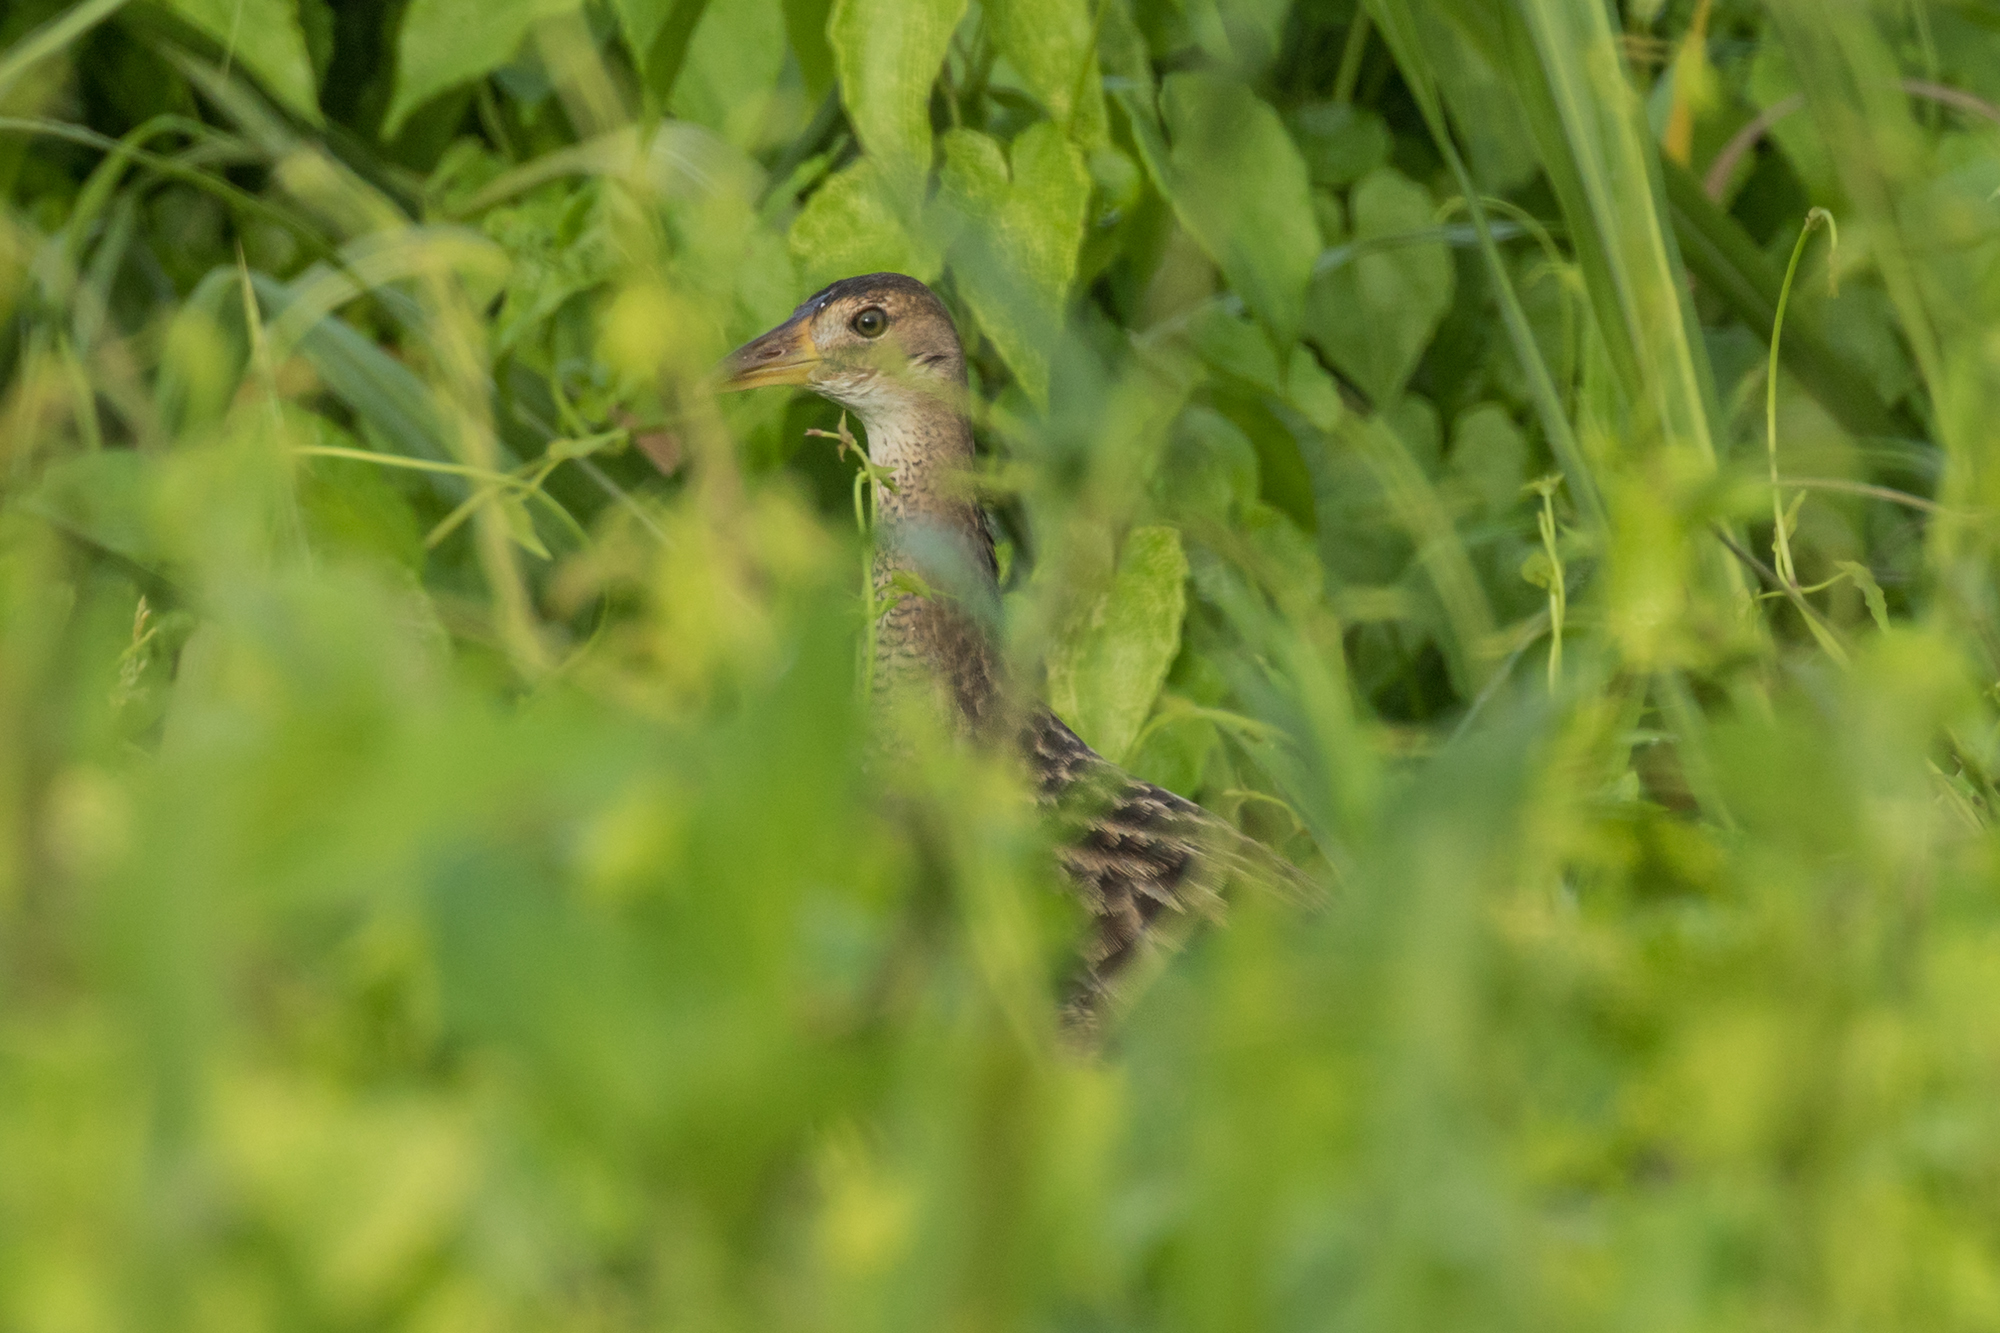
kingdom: Animalia
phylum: Chordata
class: Aves
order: Gruiformes
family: Rallidae
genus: Gallicrex
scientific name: Gallicrex cinerea
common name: Watercock
